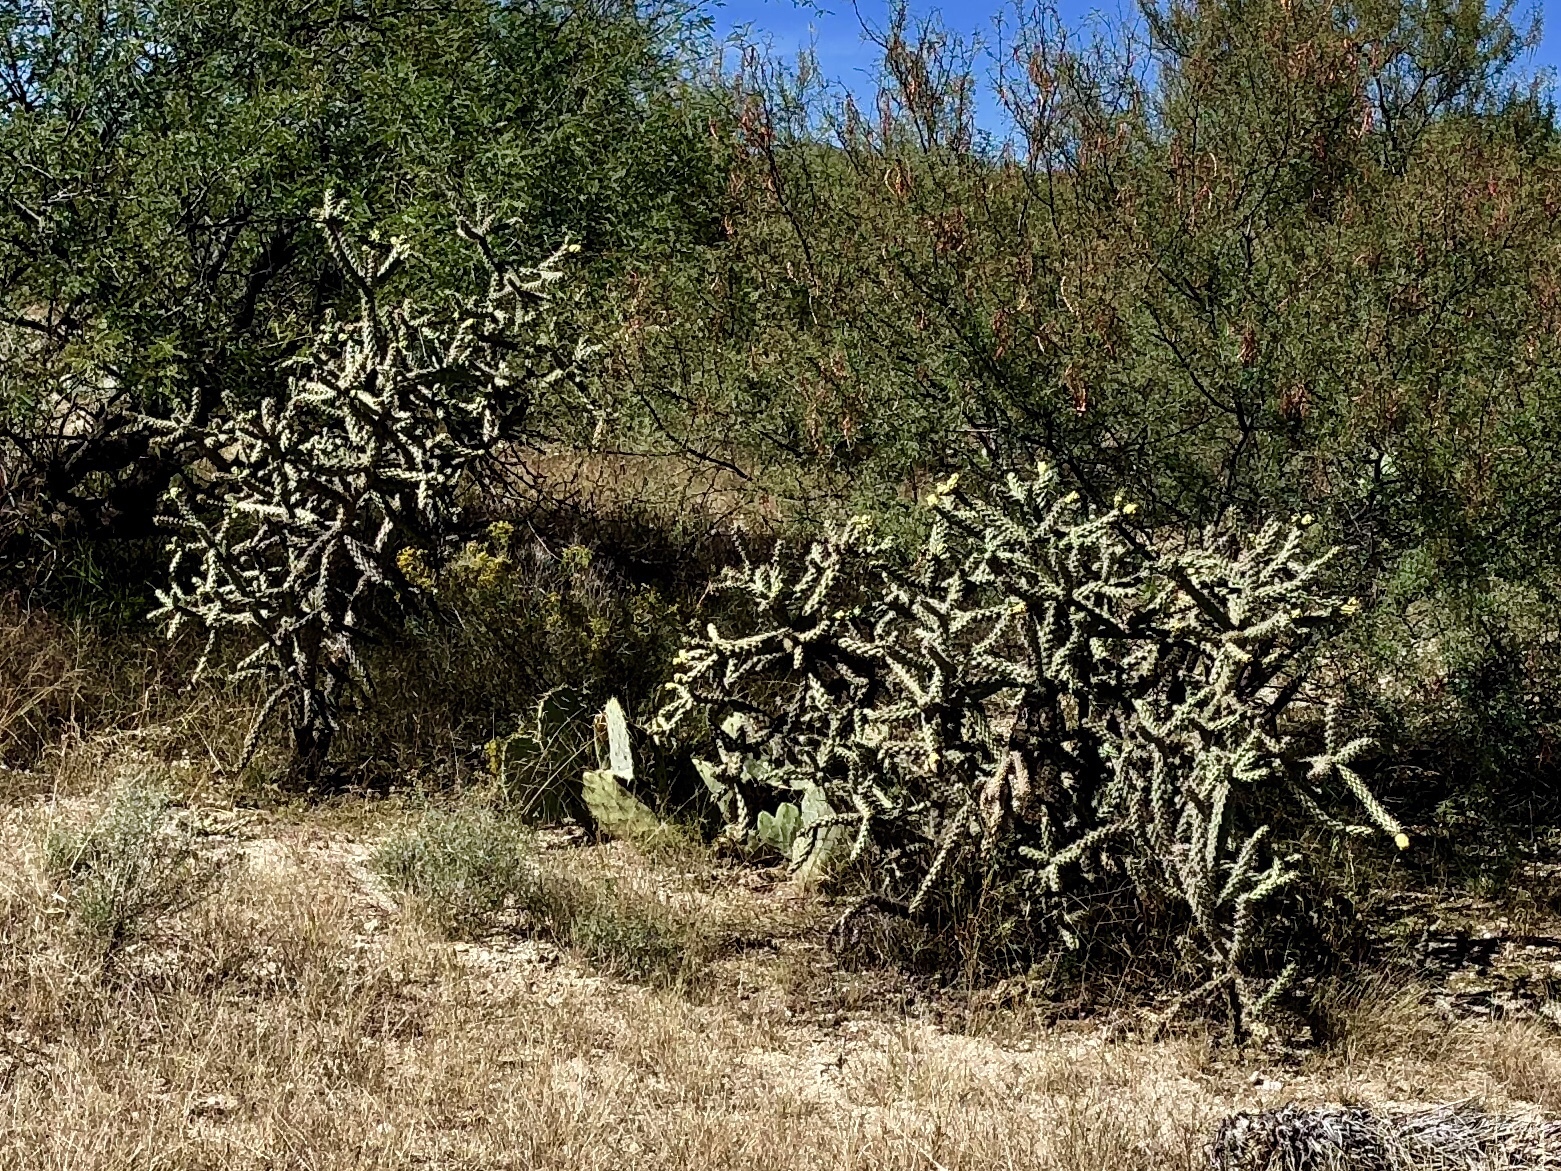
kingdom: Plantae
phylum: Tracheophyta
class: Magnoliopsida
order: Caryophyllales
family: Cactaceae
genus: Cylindropuntia
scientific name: Cylindropuntia fulgida
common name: Jumping cholla
